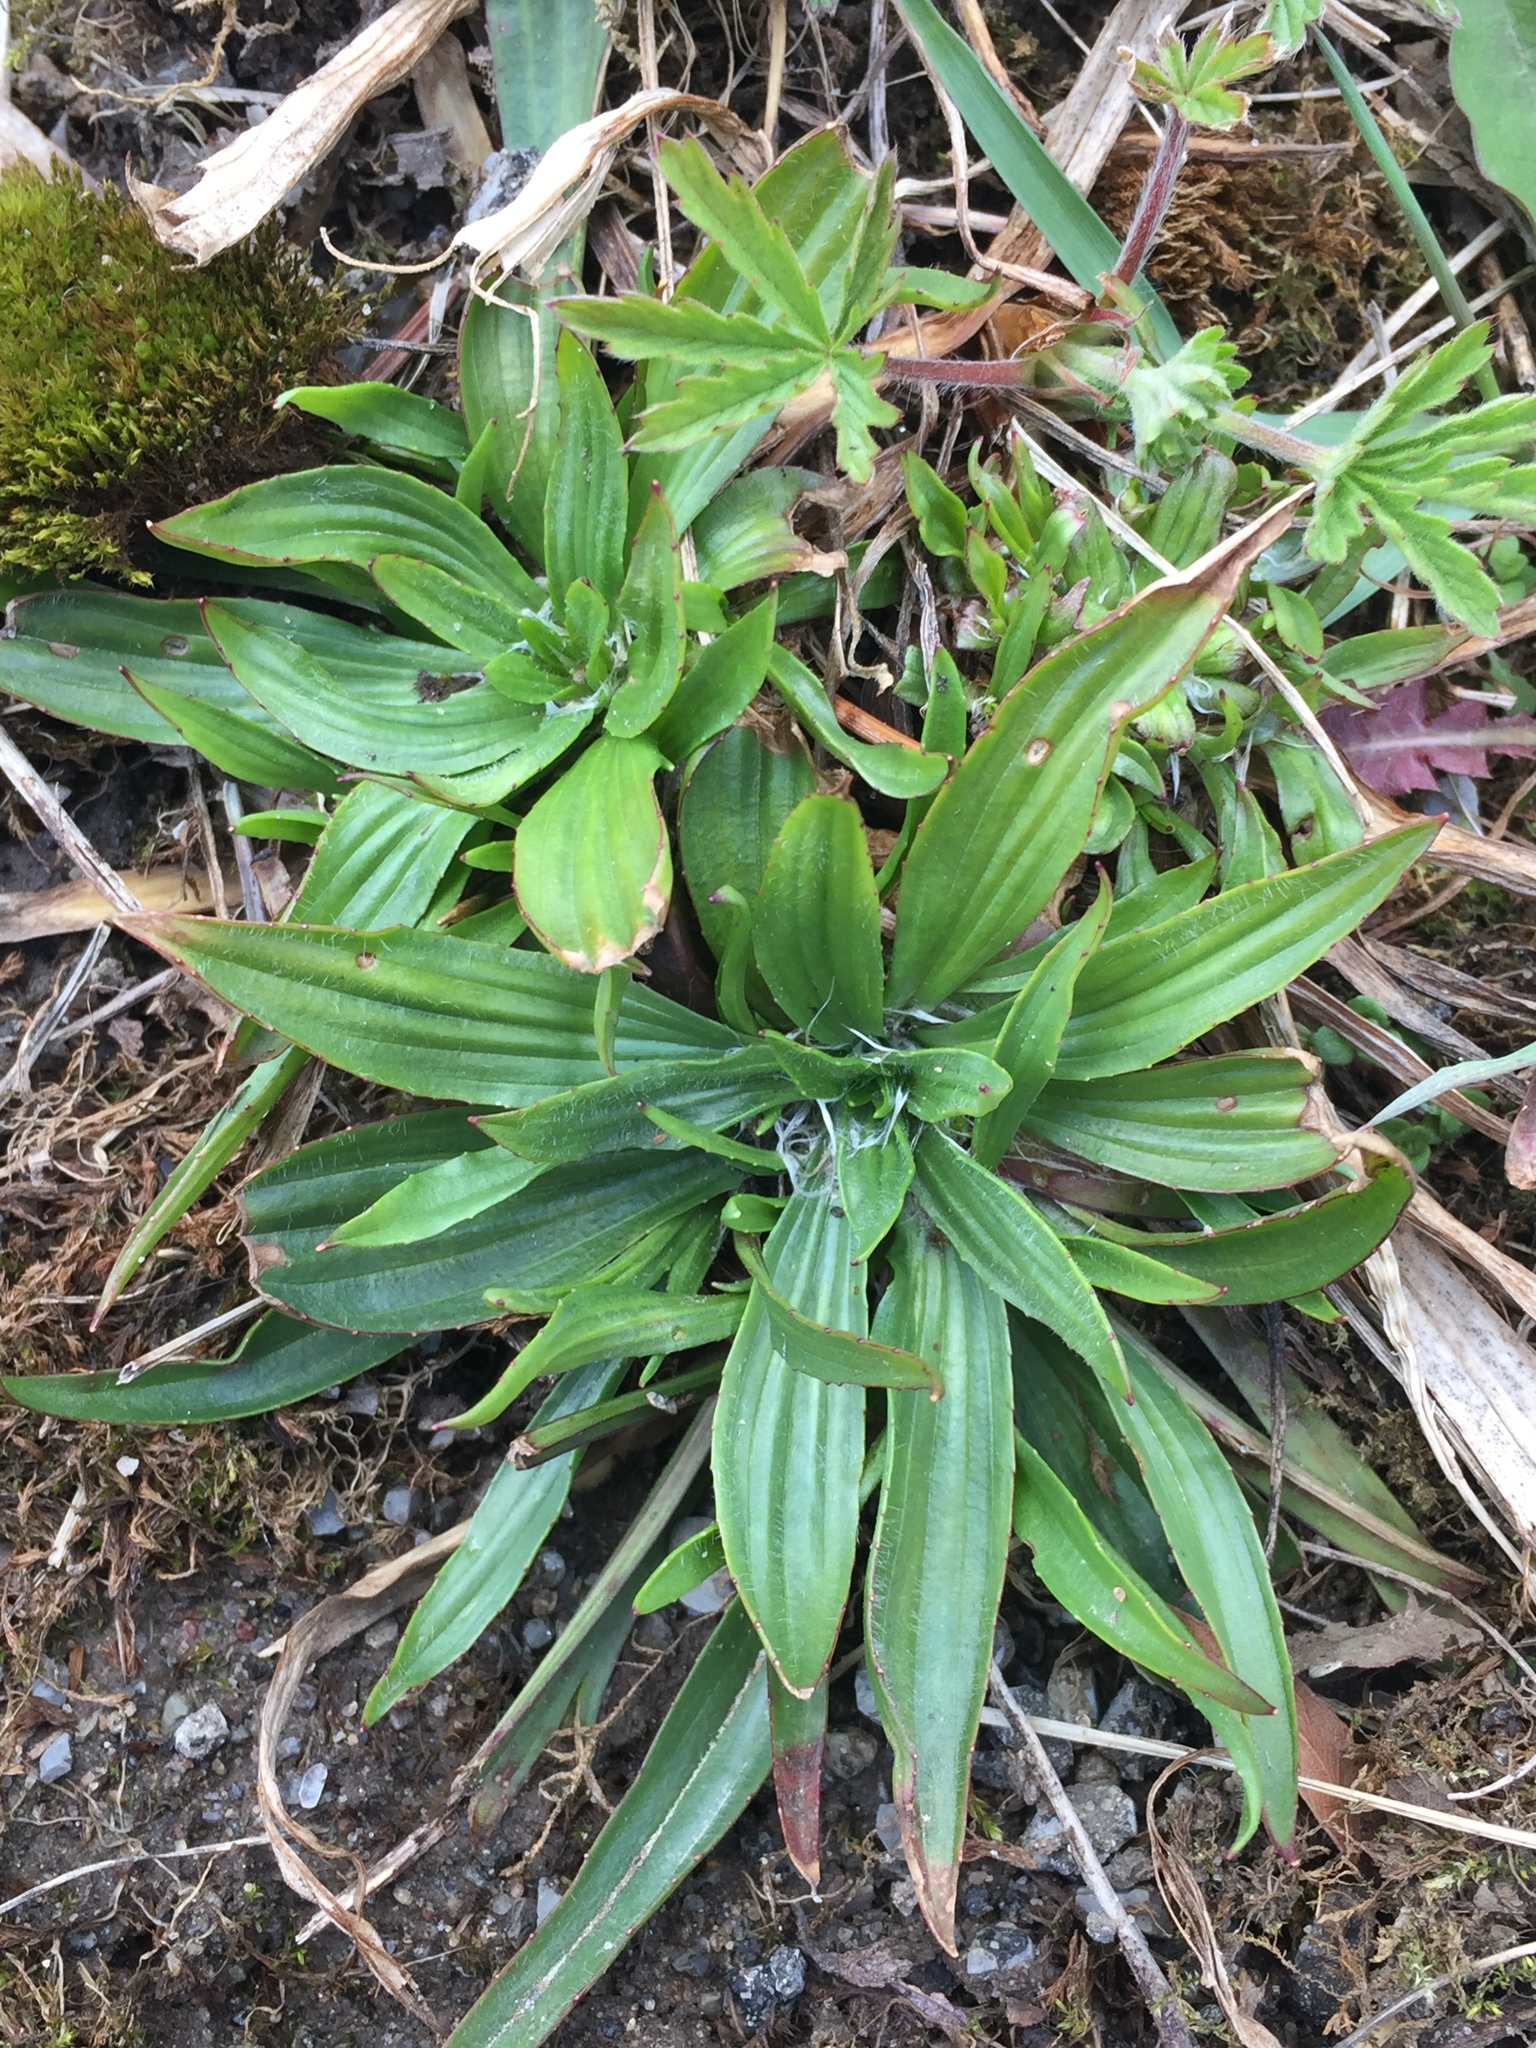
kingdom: Plantae
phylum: Tracheophyta
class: Magnoliopsida
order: Lamiales
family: Plantaginaceae
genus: Plantago
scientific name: Plantago lanceolata
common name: Ribwort plantain
